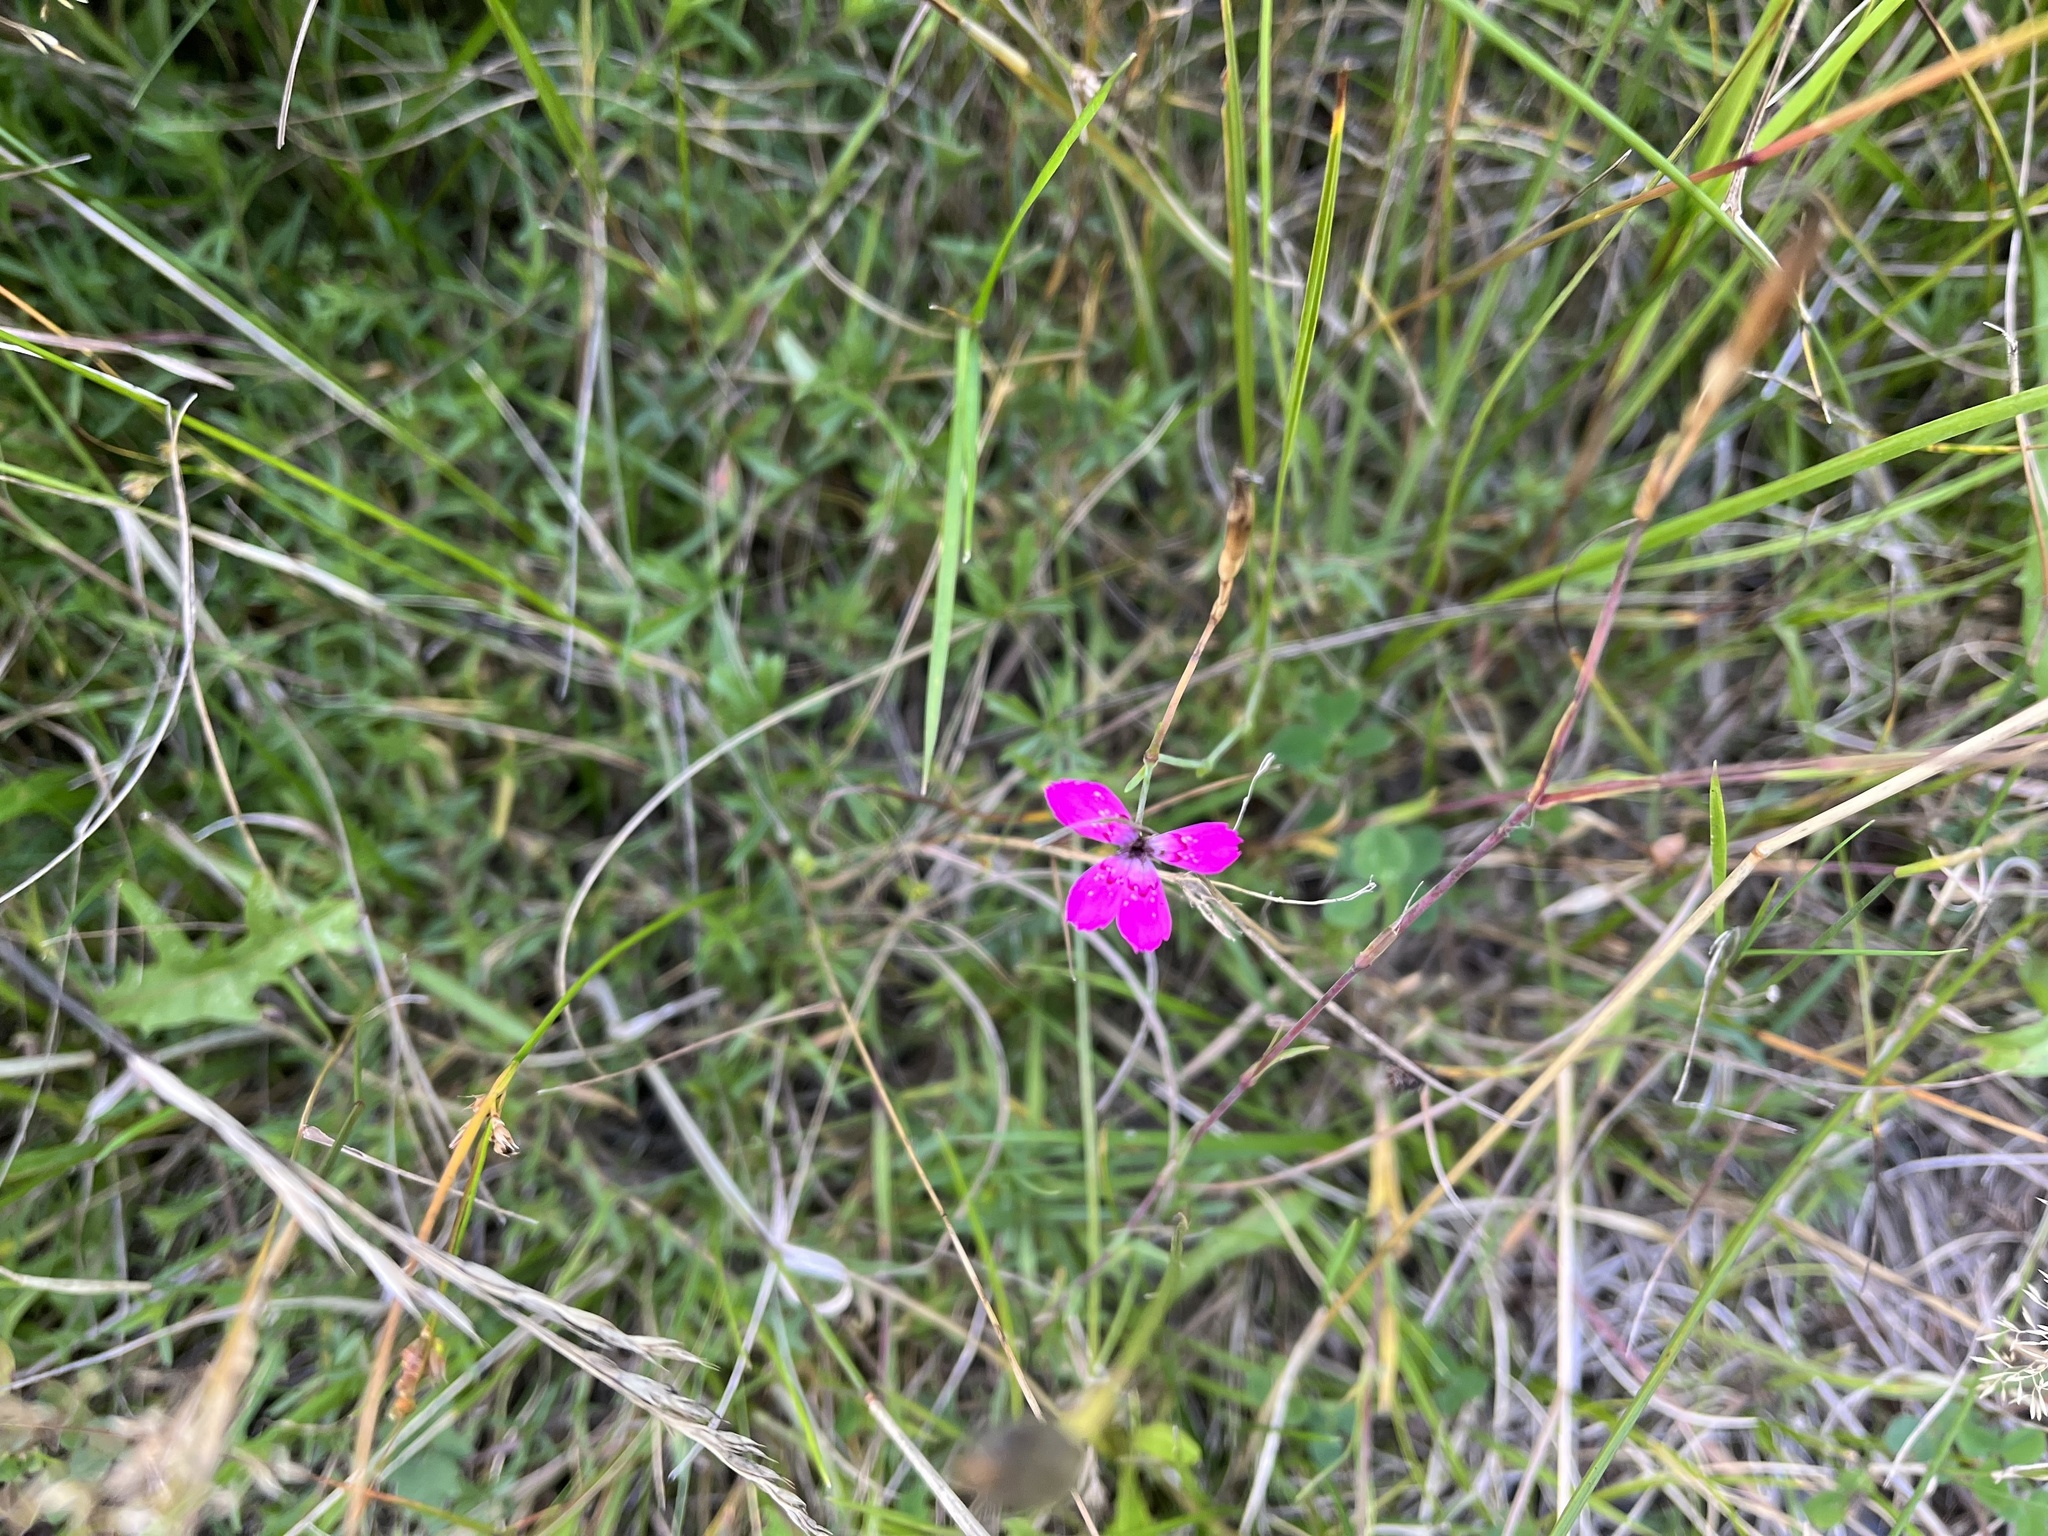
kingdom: Plantae
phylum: Tracheophyta
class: Magnoliopsida
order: Caryophyllales
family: Caryophyllaceae
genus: Dianthus
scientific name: Dianthus deltoides
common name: Maiden pink
